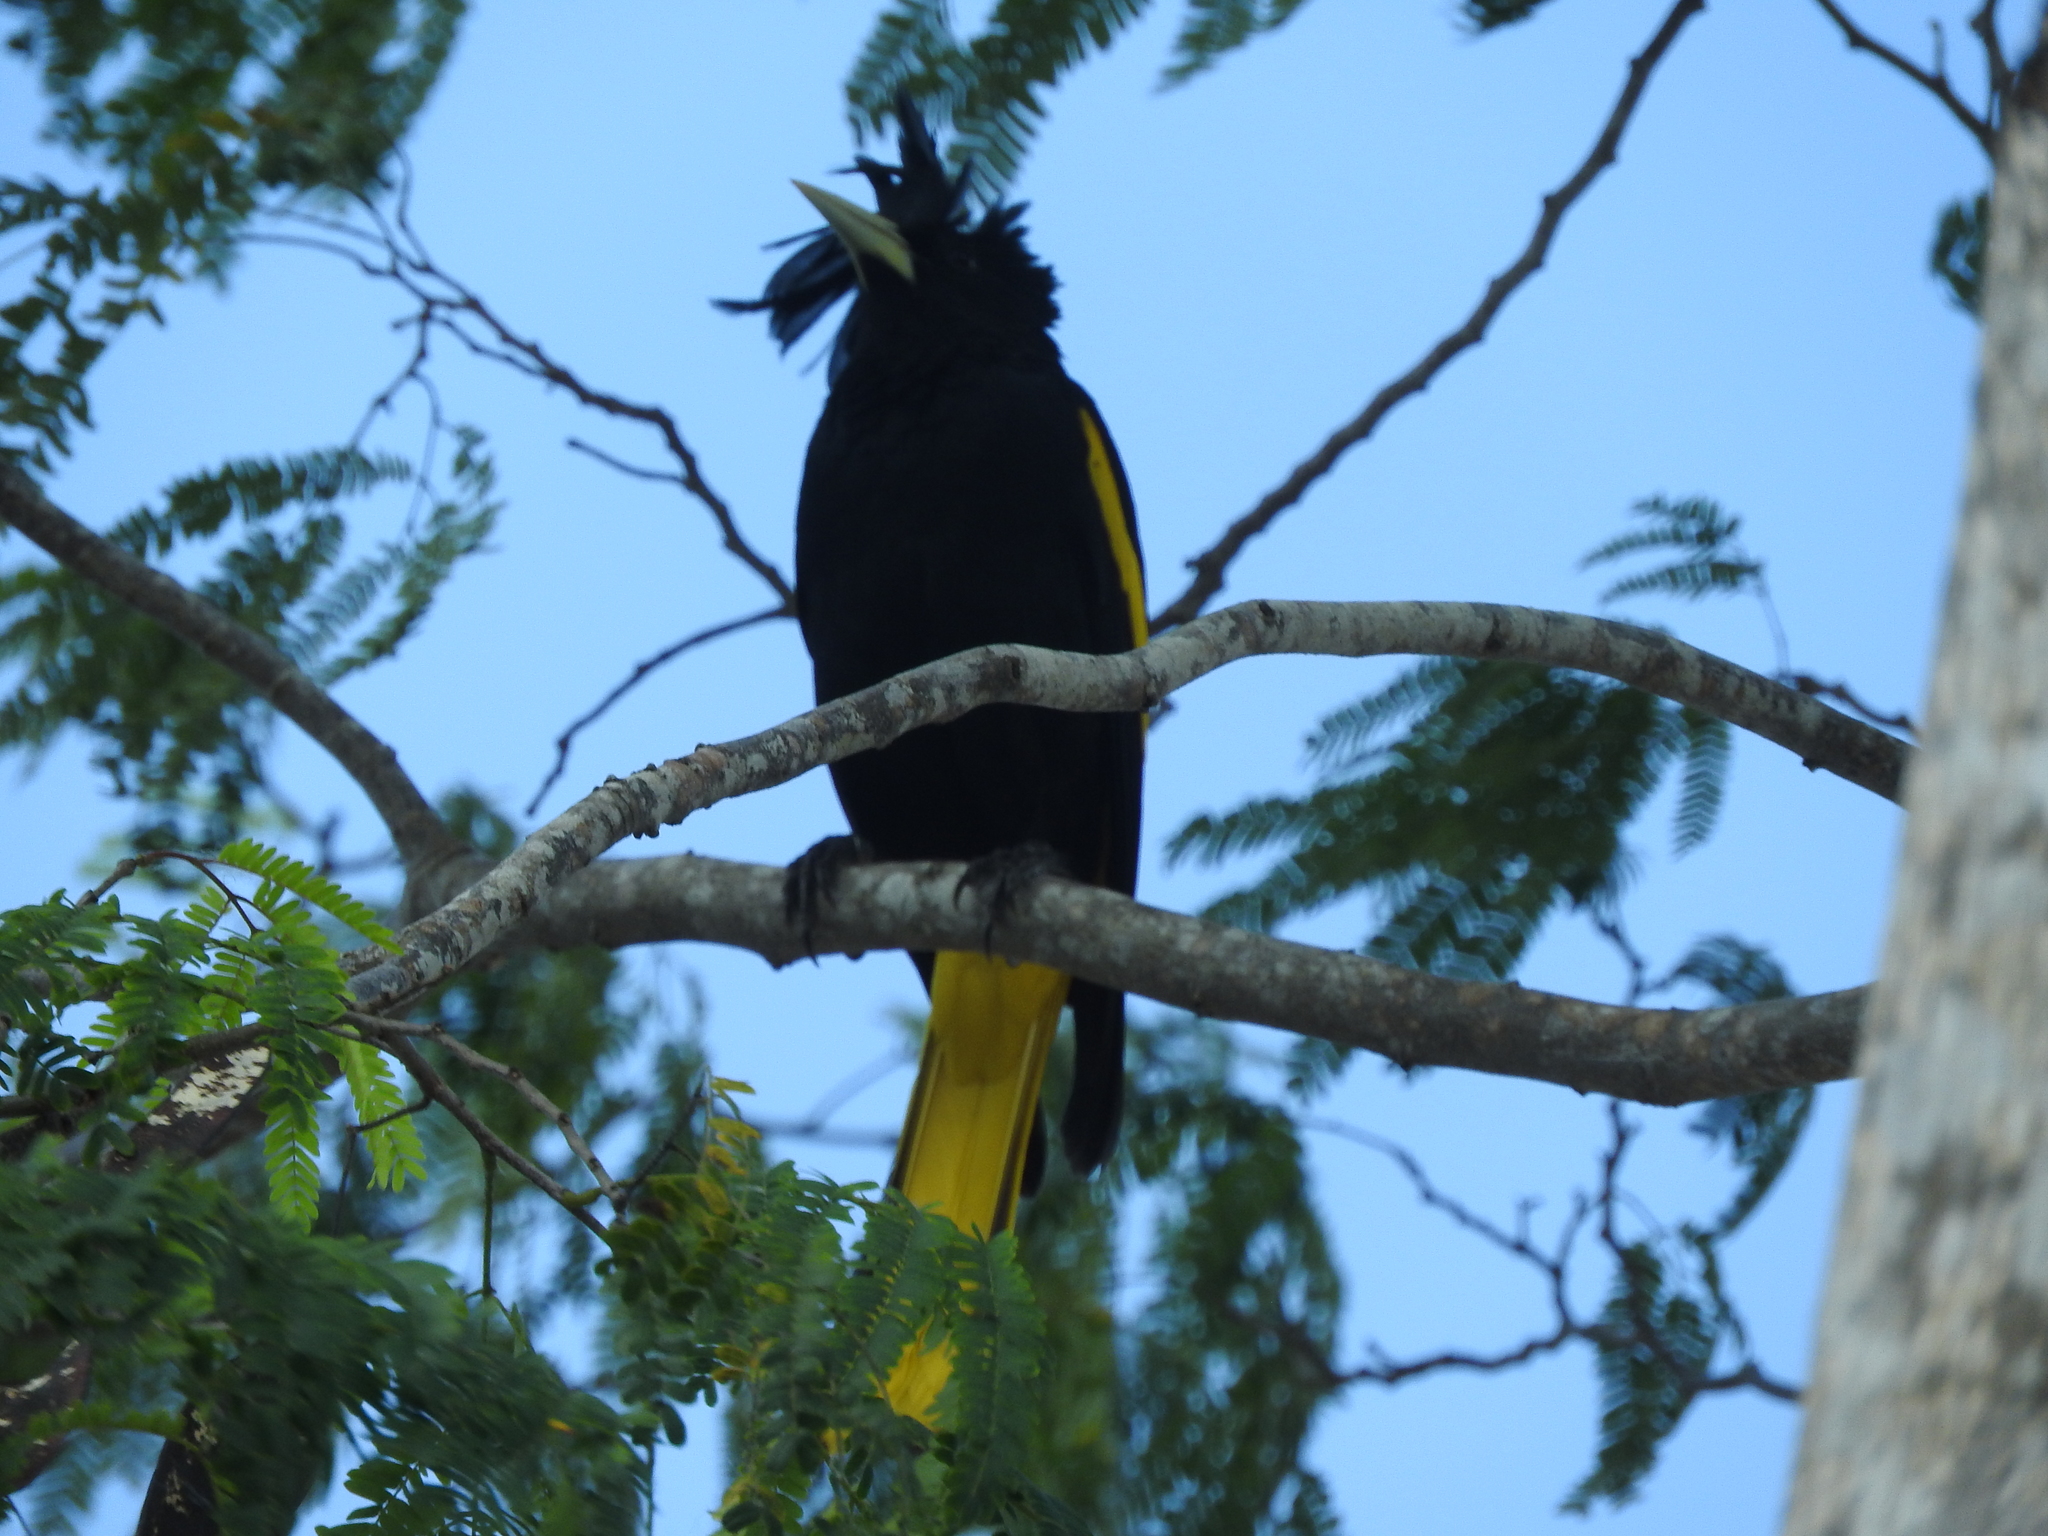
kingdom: Animalia
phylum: Chordata
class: Aves
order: Passeriformes
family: Icteridae
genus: Cacicus
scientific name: Cacicus melanicterus
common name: Yellow-winged cacique
